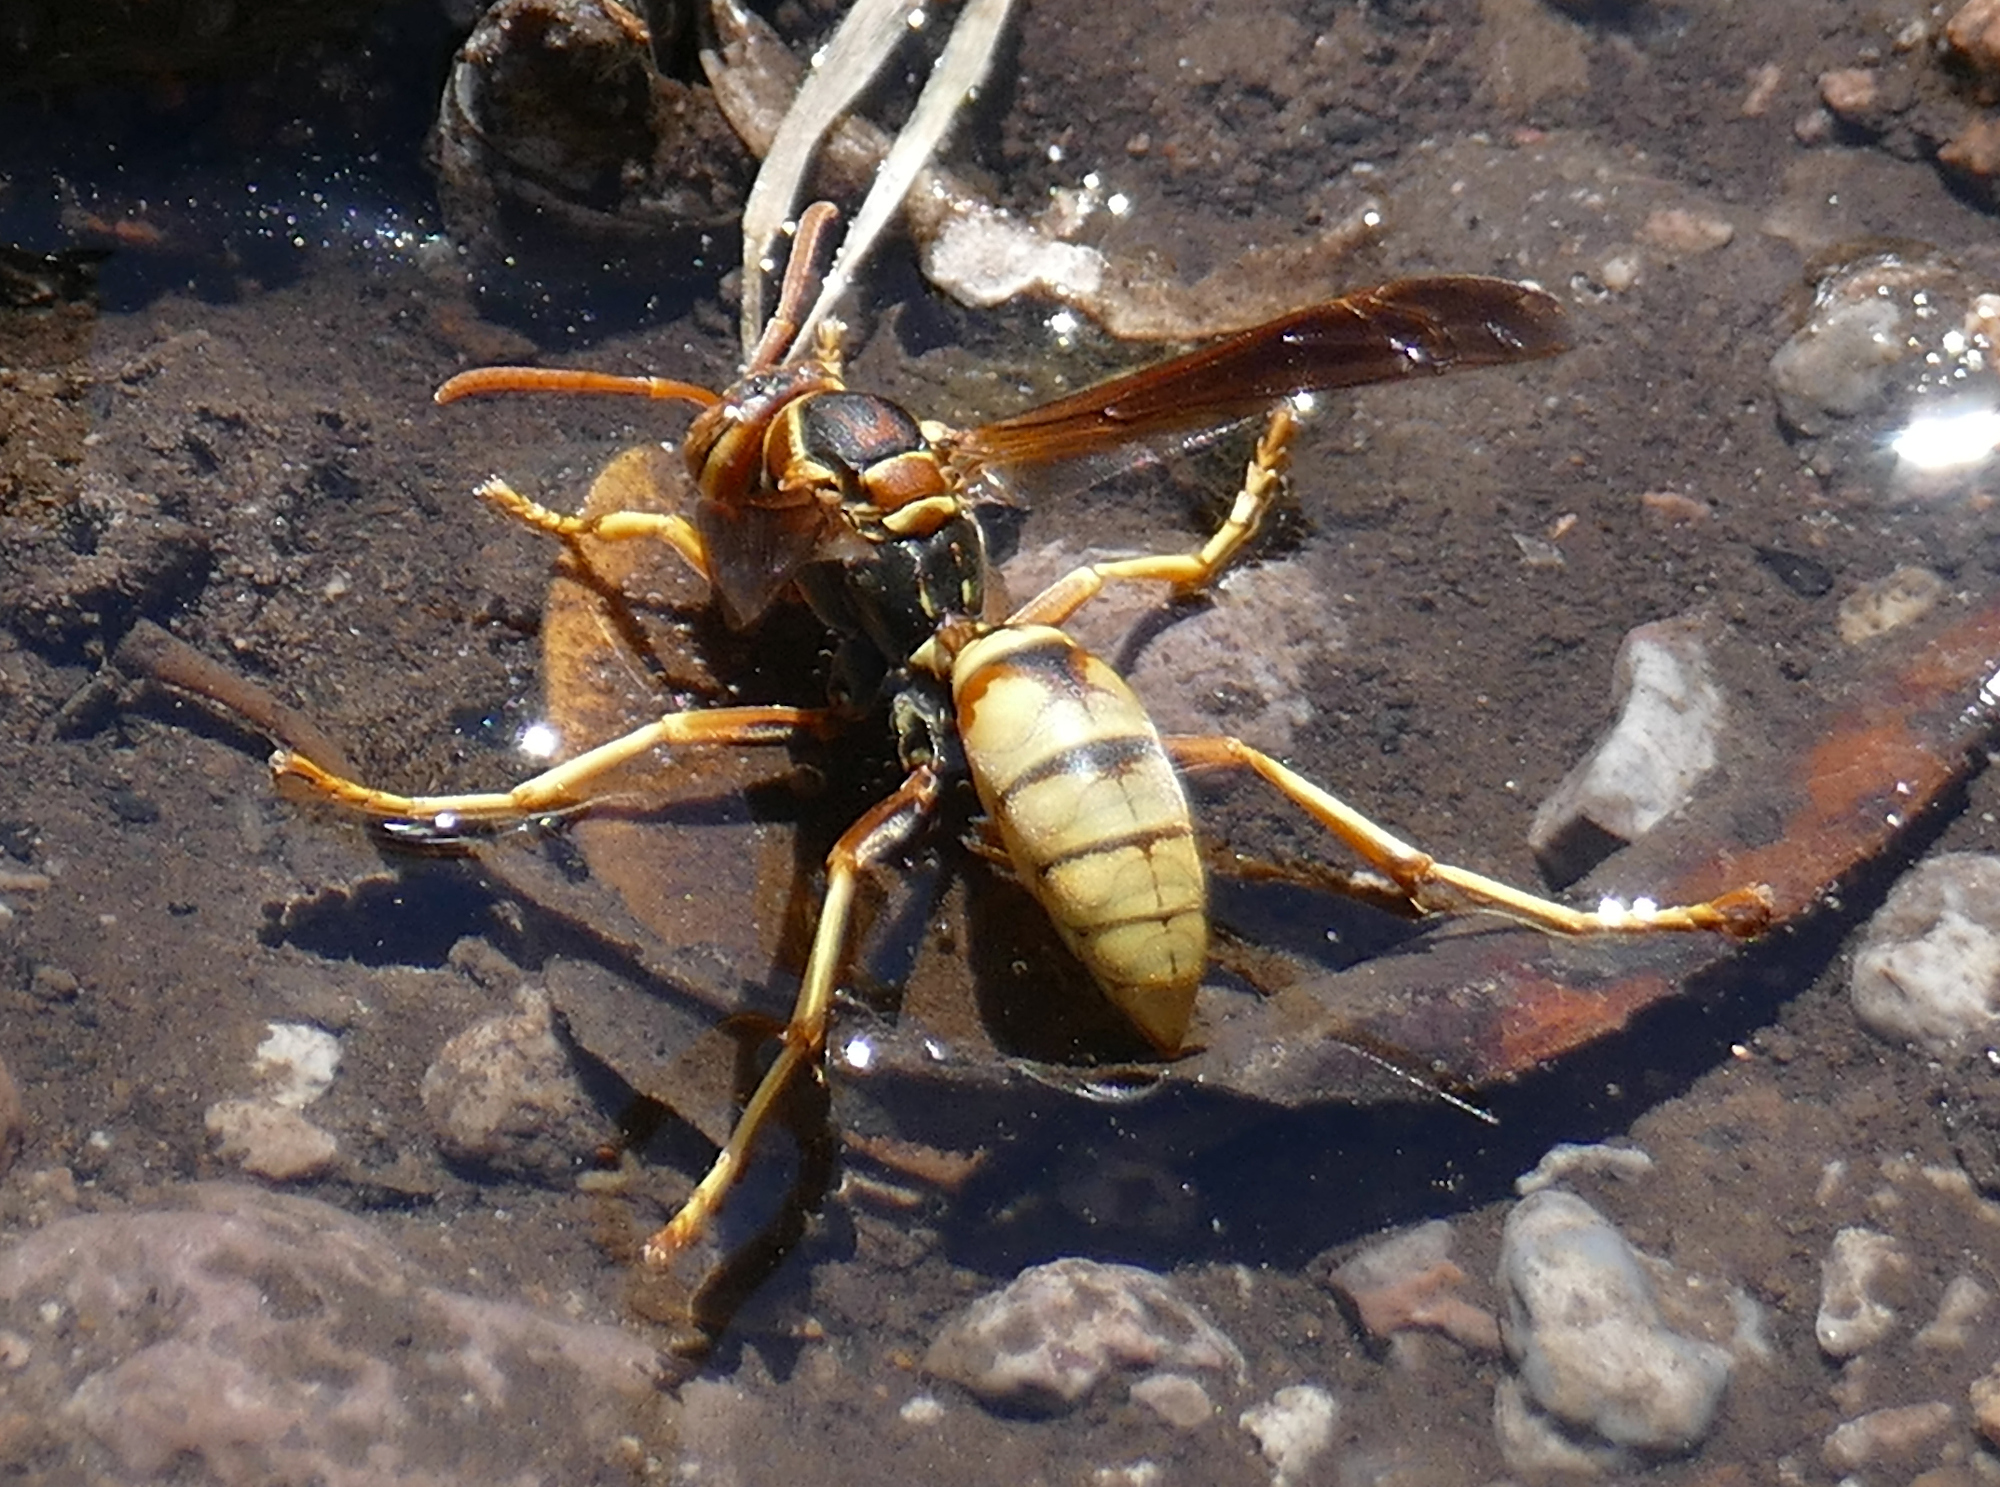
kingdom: Animalia
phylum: Arthropoda
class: Insecta
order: Hymenoptera
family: Eumenidae
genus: Polistes
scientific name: Polistes aurifer
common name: Paper wasp
